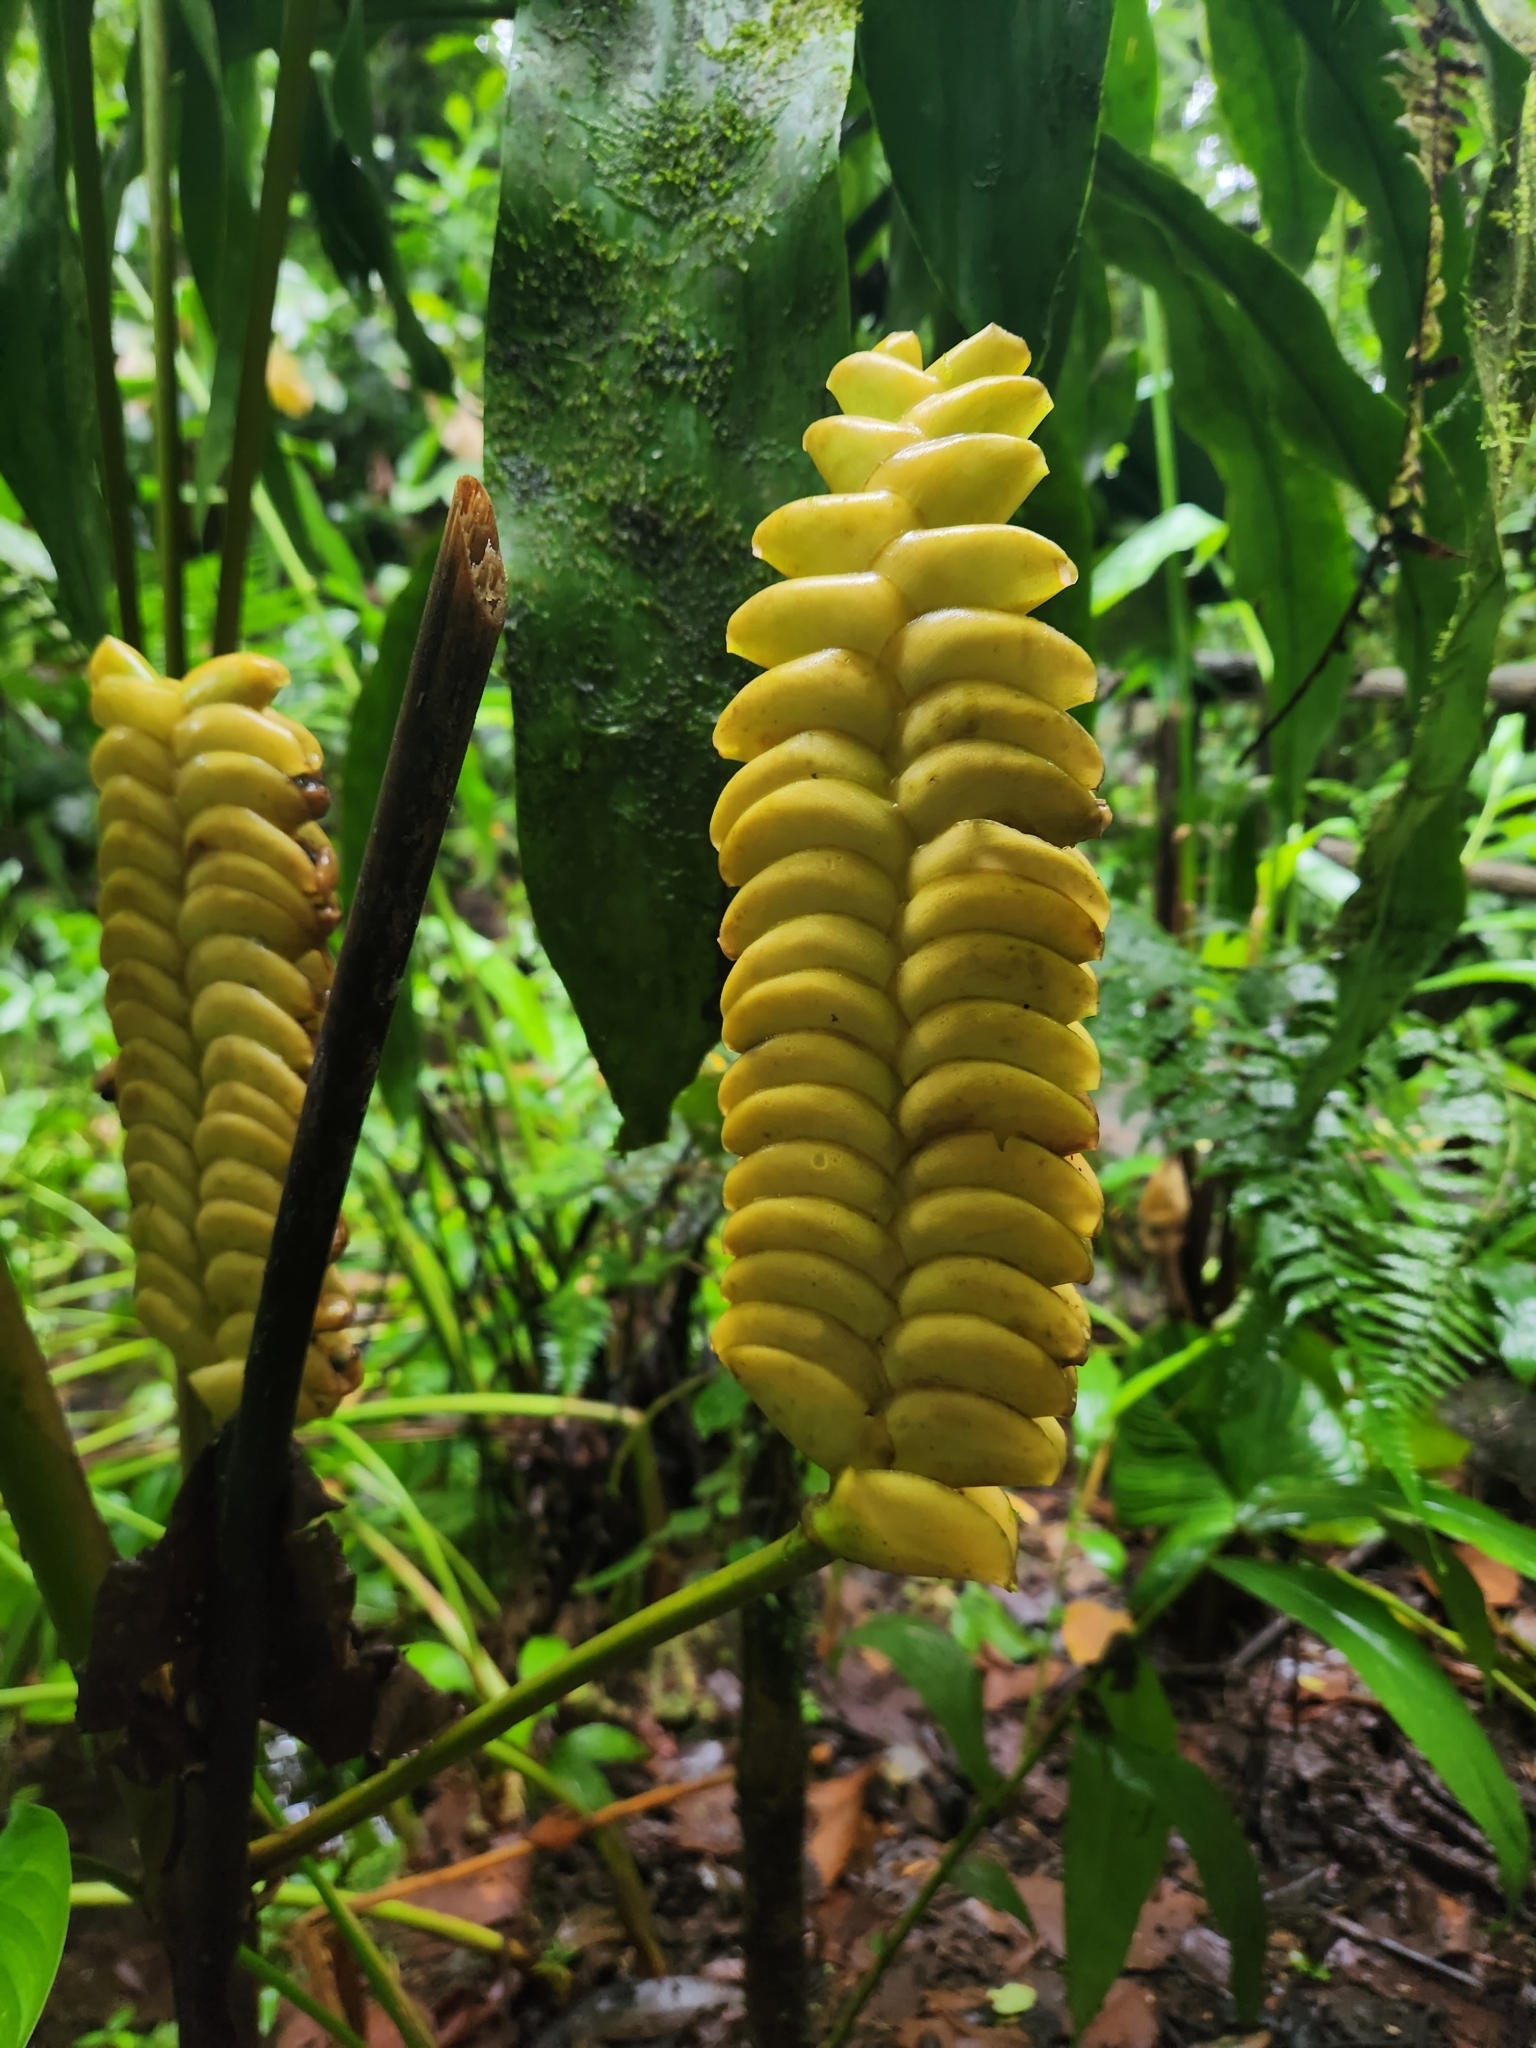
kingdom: Plantae
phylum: Tracheophyta
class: Liliopsida
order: Zingiberales
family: Marantaceae
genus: Calathea
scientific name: Calathea crotalifera
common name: Rattlesnake plant
